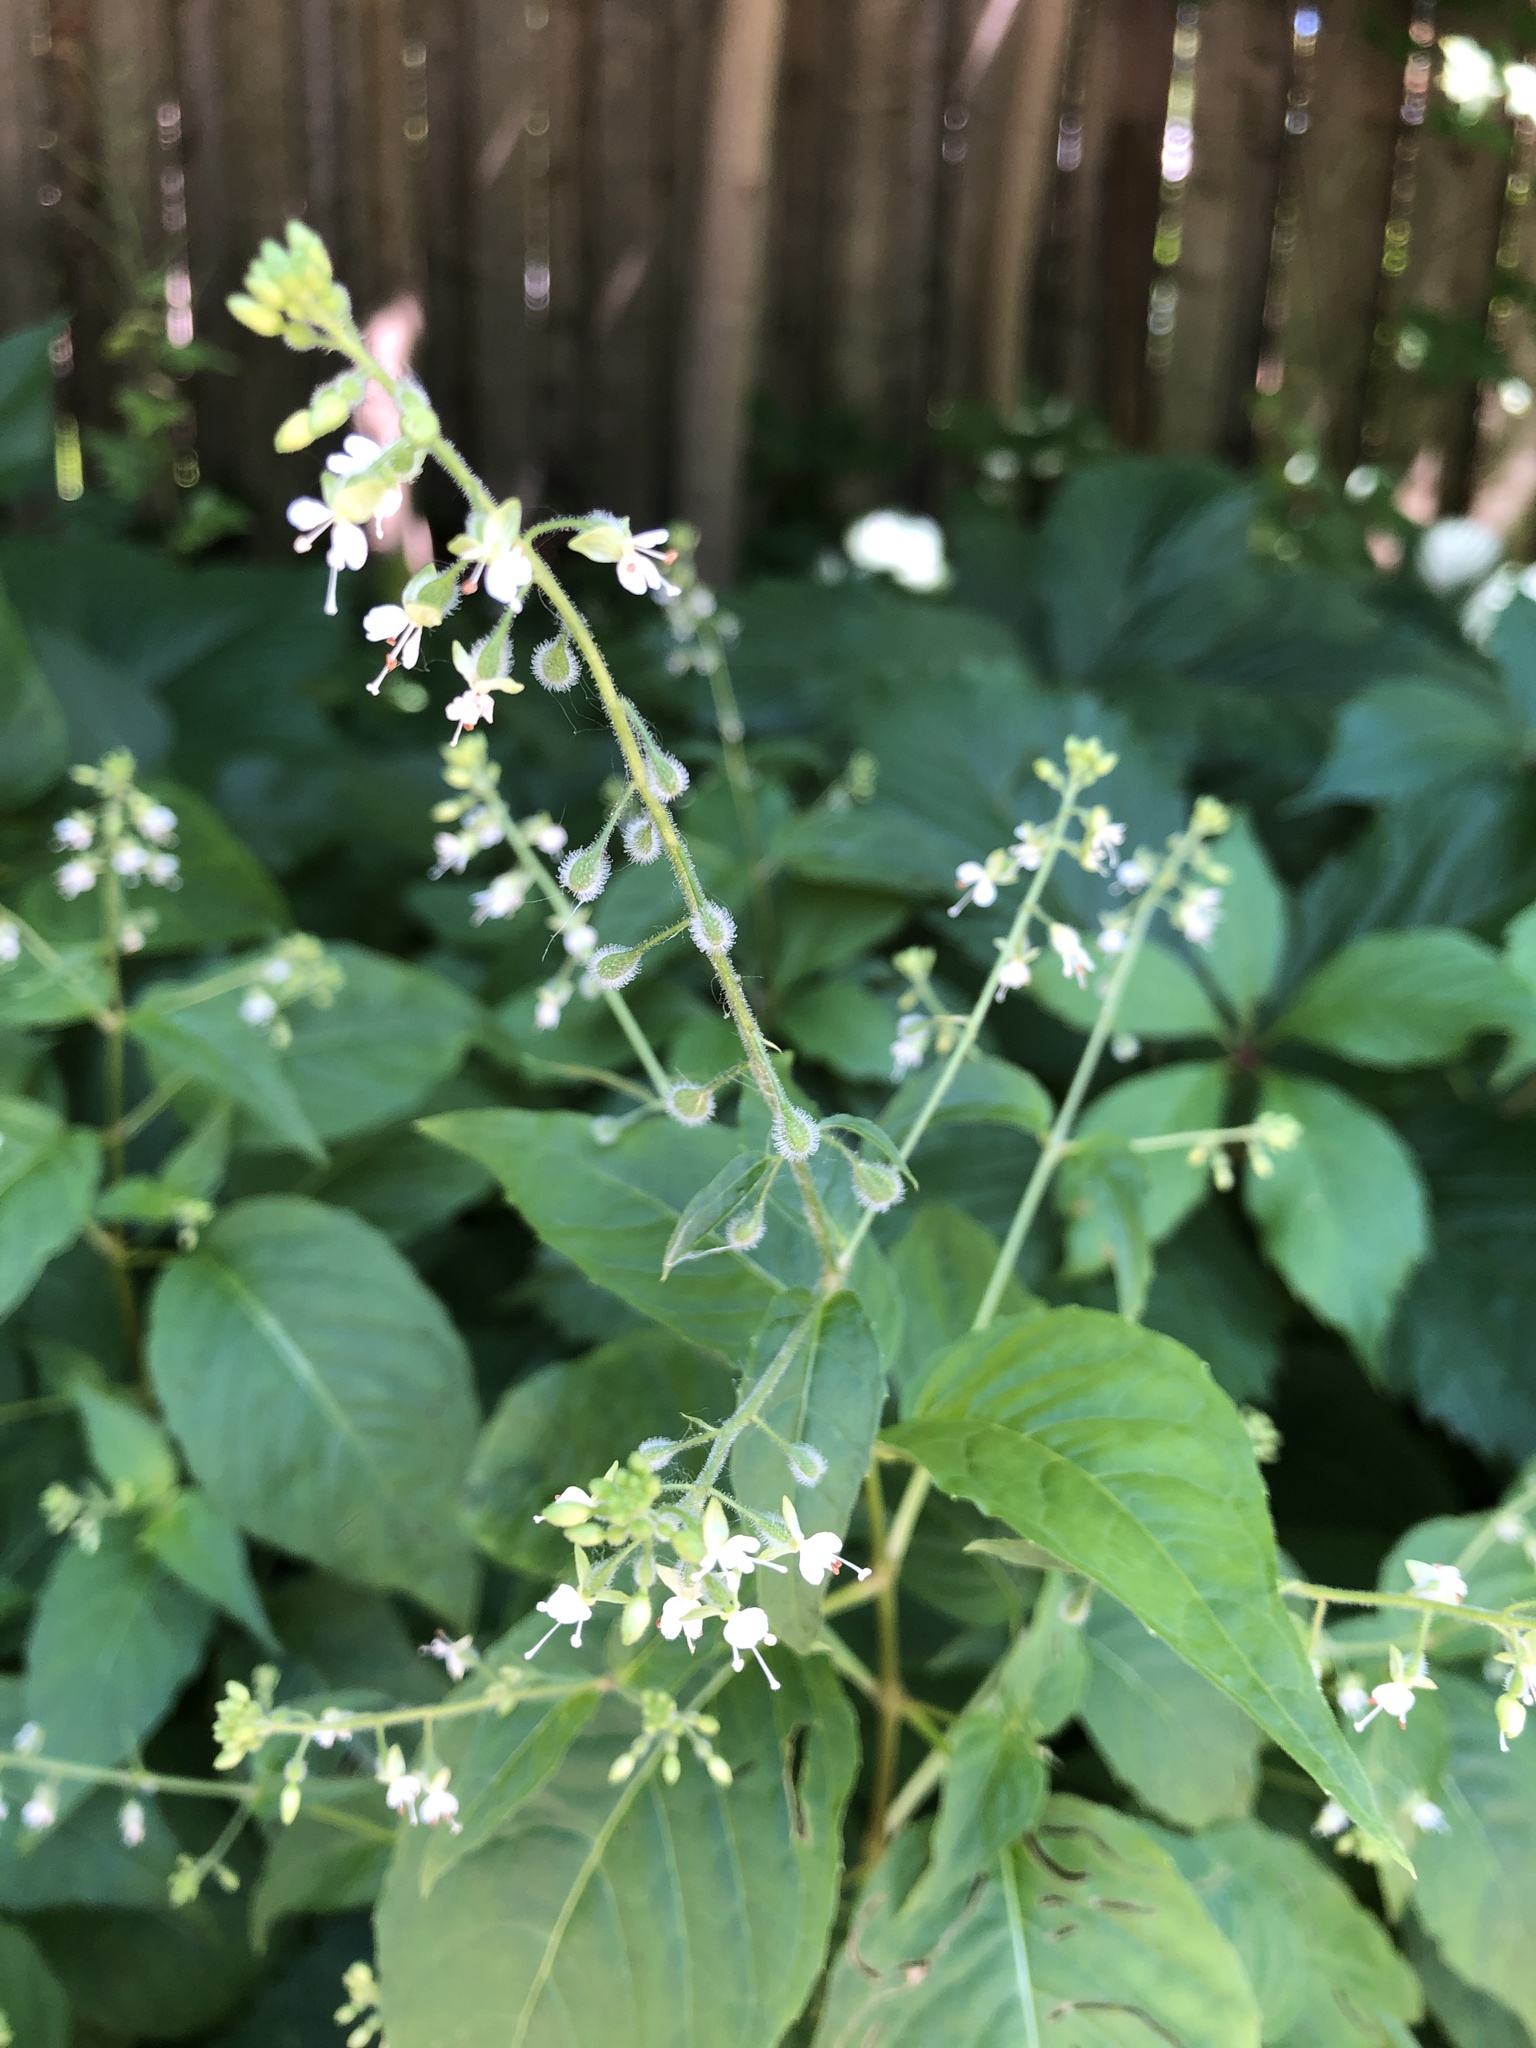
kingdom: Plantae
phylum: Tracheophyta
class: Magnoliopsida
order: Myrtales
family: Onagraceae
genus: Circaea
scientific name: Circaea canadensis
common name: Broad-leaved enchanter's nightshade
